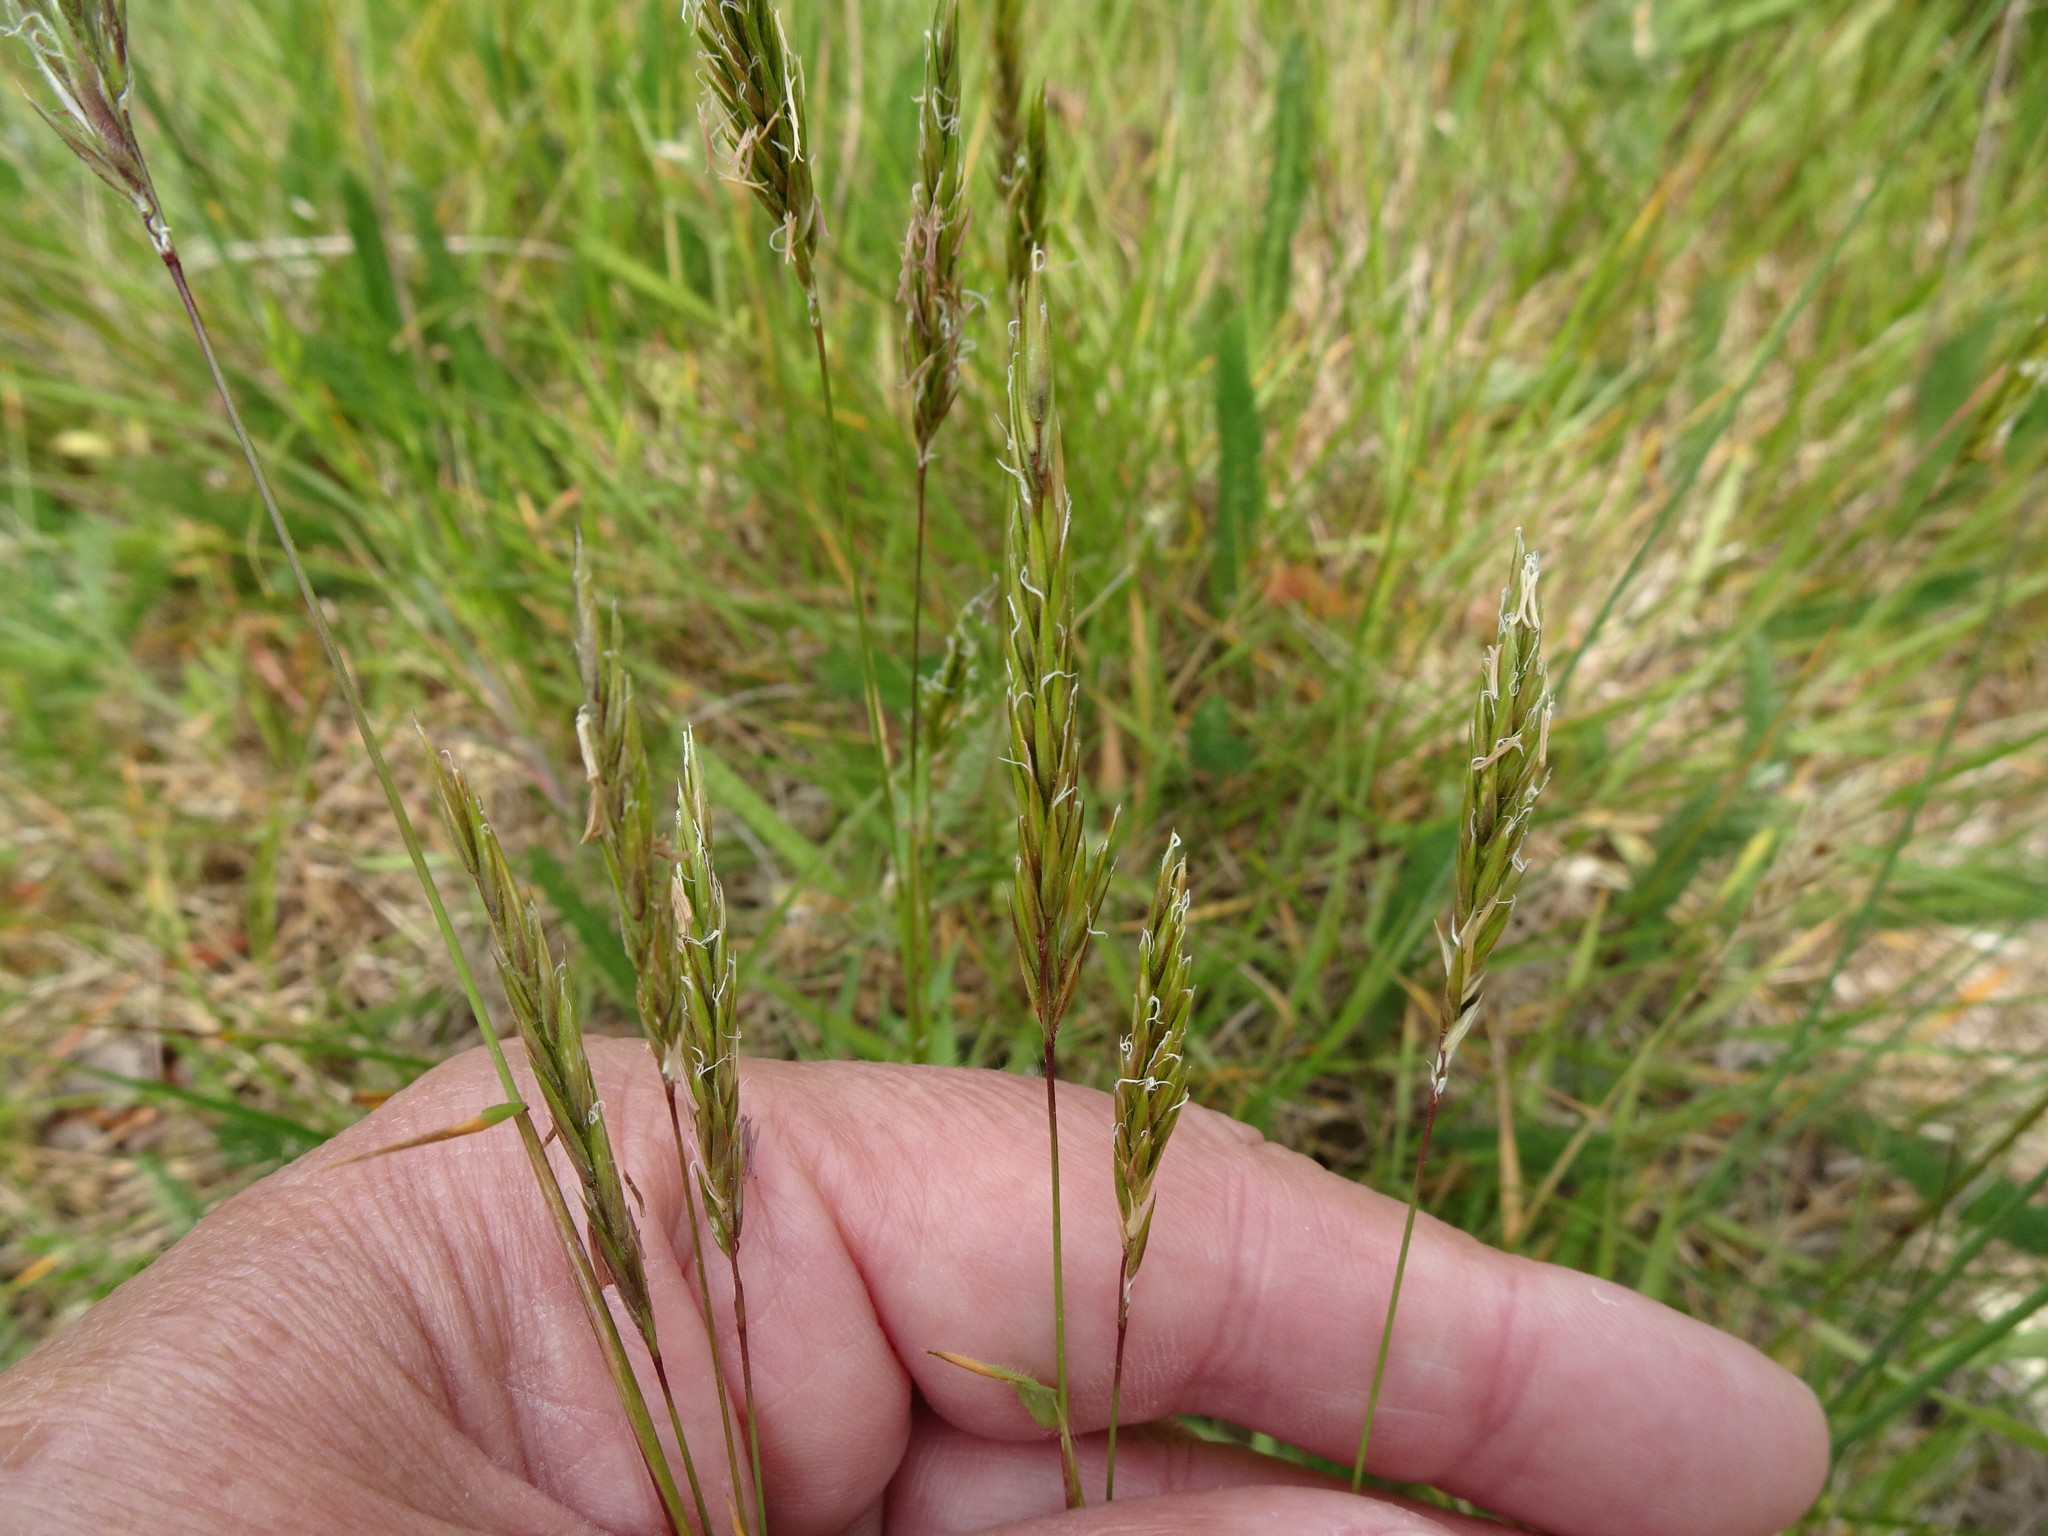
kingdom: Plantae
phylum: Tracheophyta
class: Liliopsida
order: Poales
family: Poaceae
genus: Anthoxanthum
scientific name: Anthoxanthum odoratum
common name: Sweet vernalgrass
